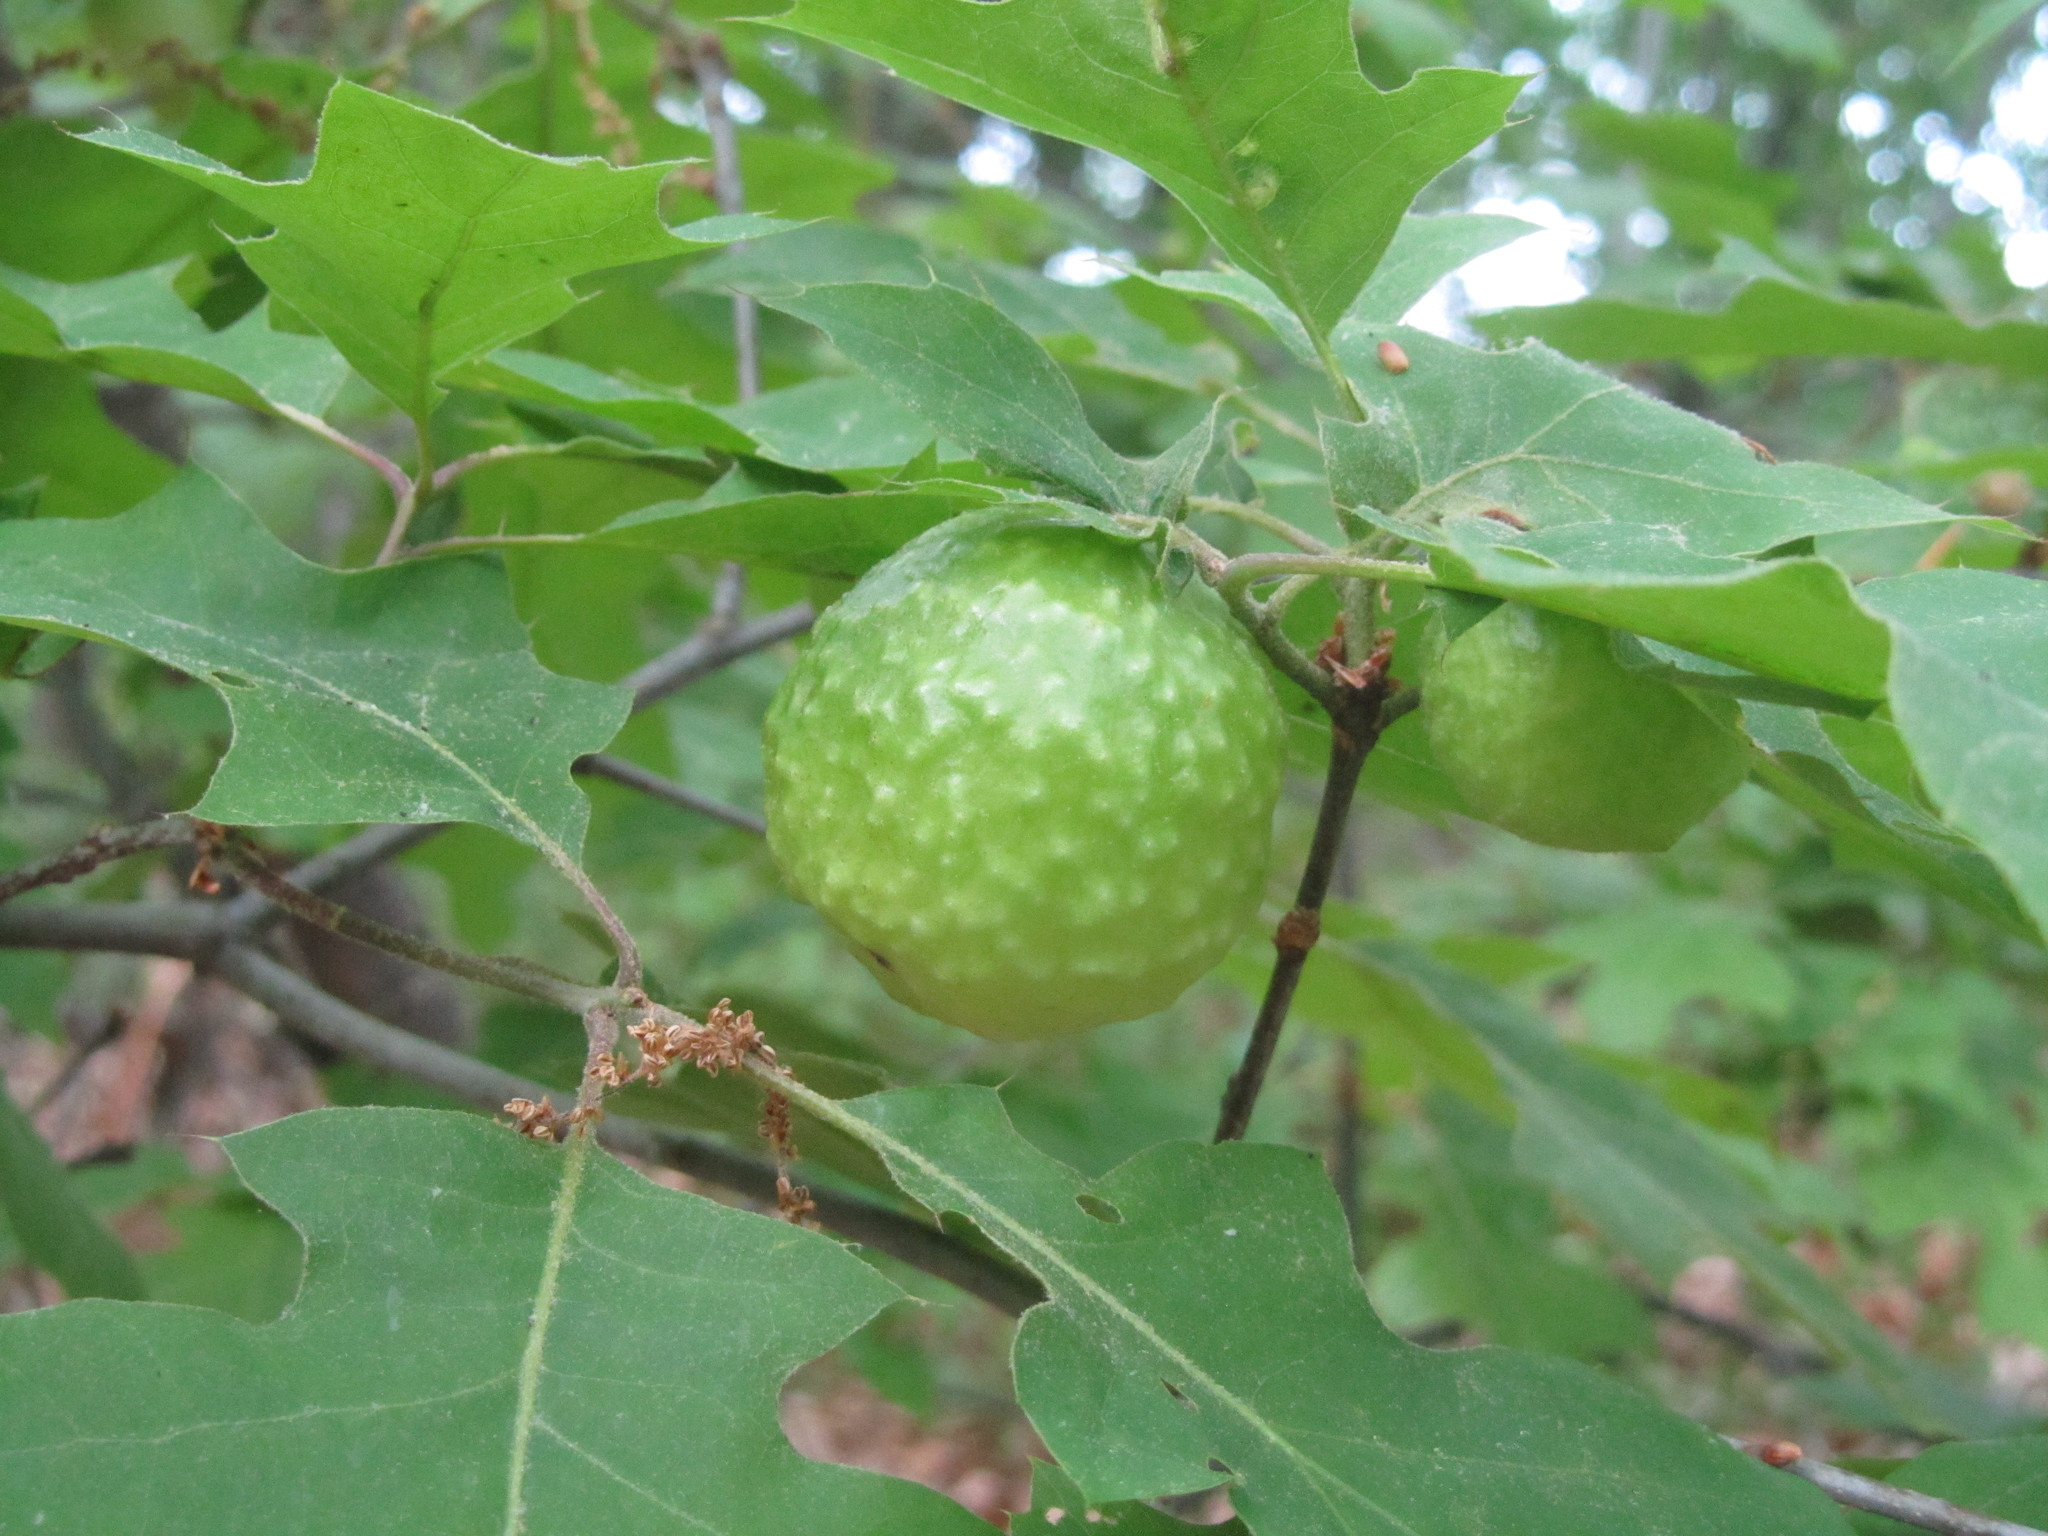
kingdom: Animalia
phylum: Arthropoda
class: Insecta
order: Hymenoptera
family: Cynipidae
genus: Amphibolips
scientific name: Amphibolips
